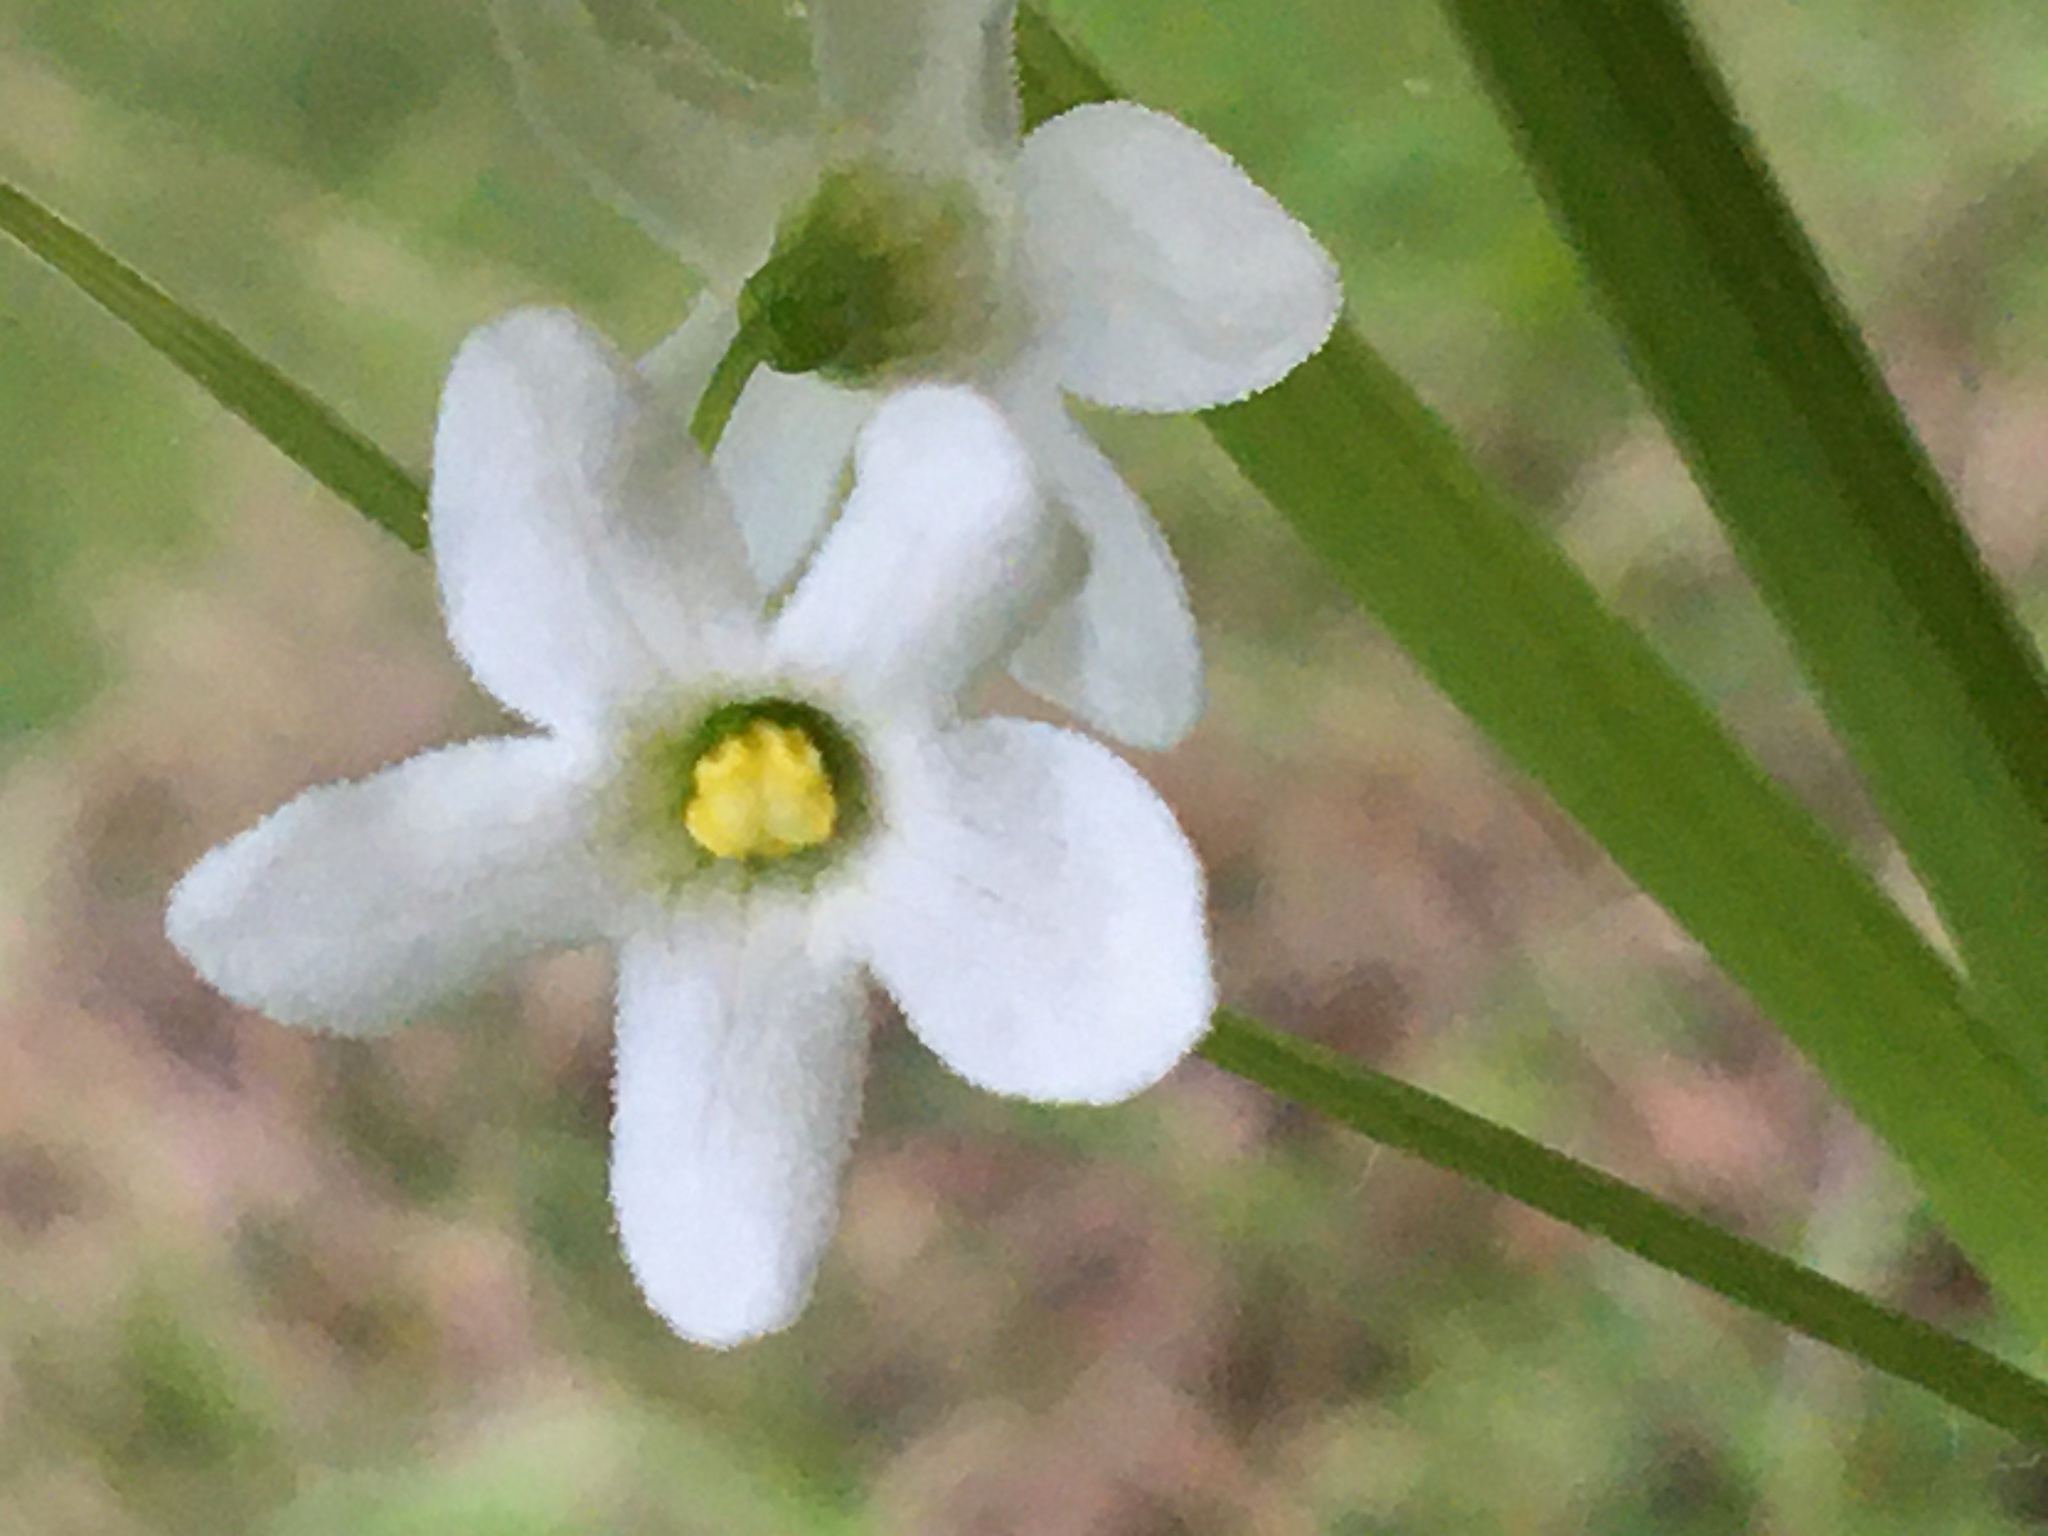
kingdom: Plantae
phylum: Tracheophyta
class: Magnoliopsida
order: Cucurbitales
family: Cucurbitaceae
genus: Marah
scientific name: Marah oregana
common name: Coastal manroot
